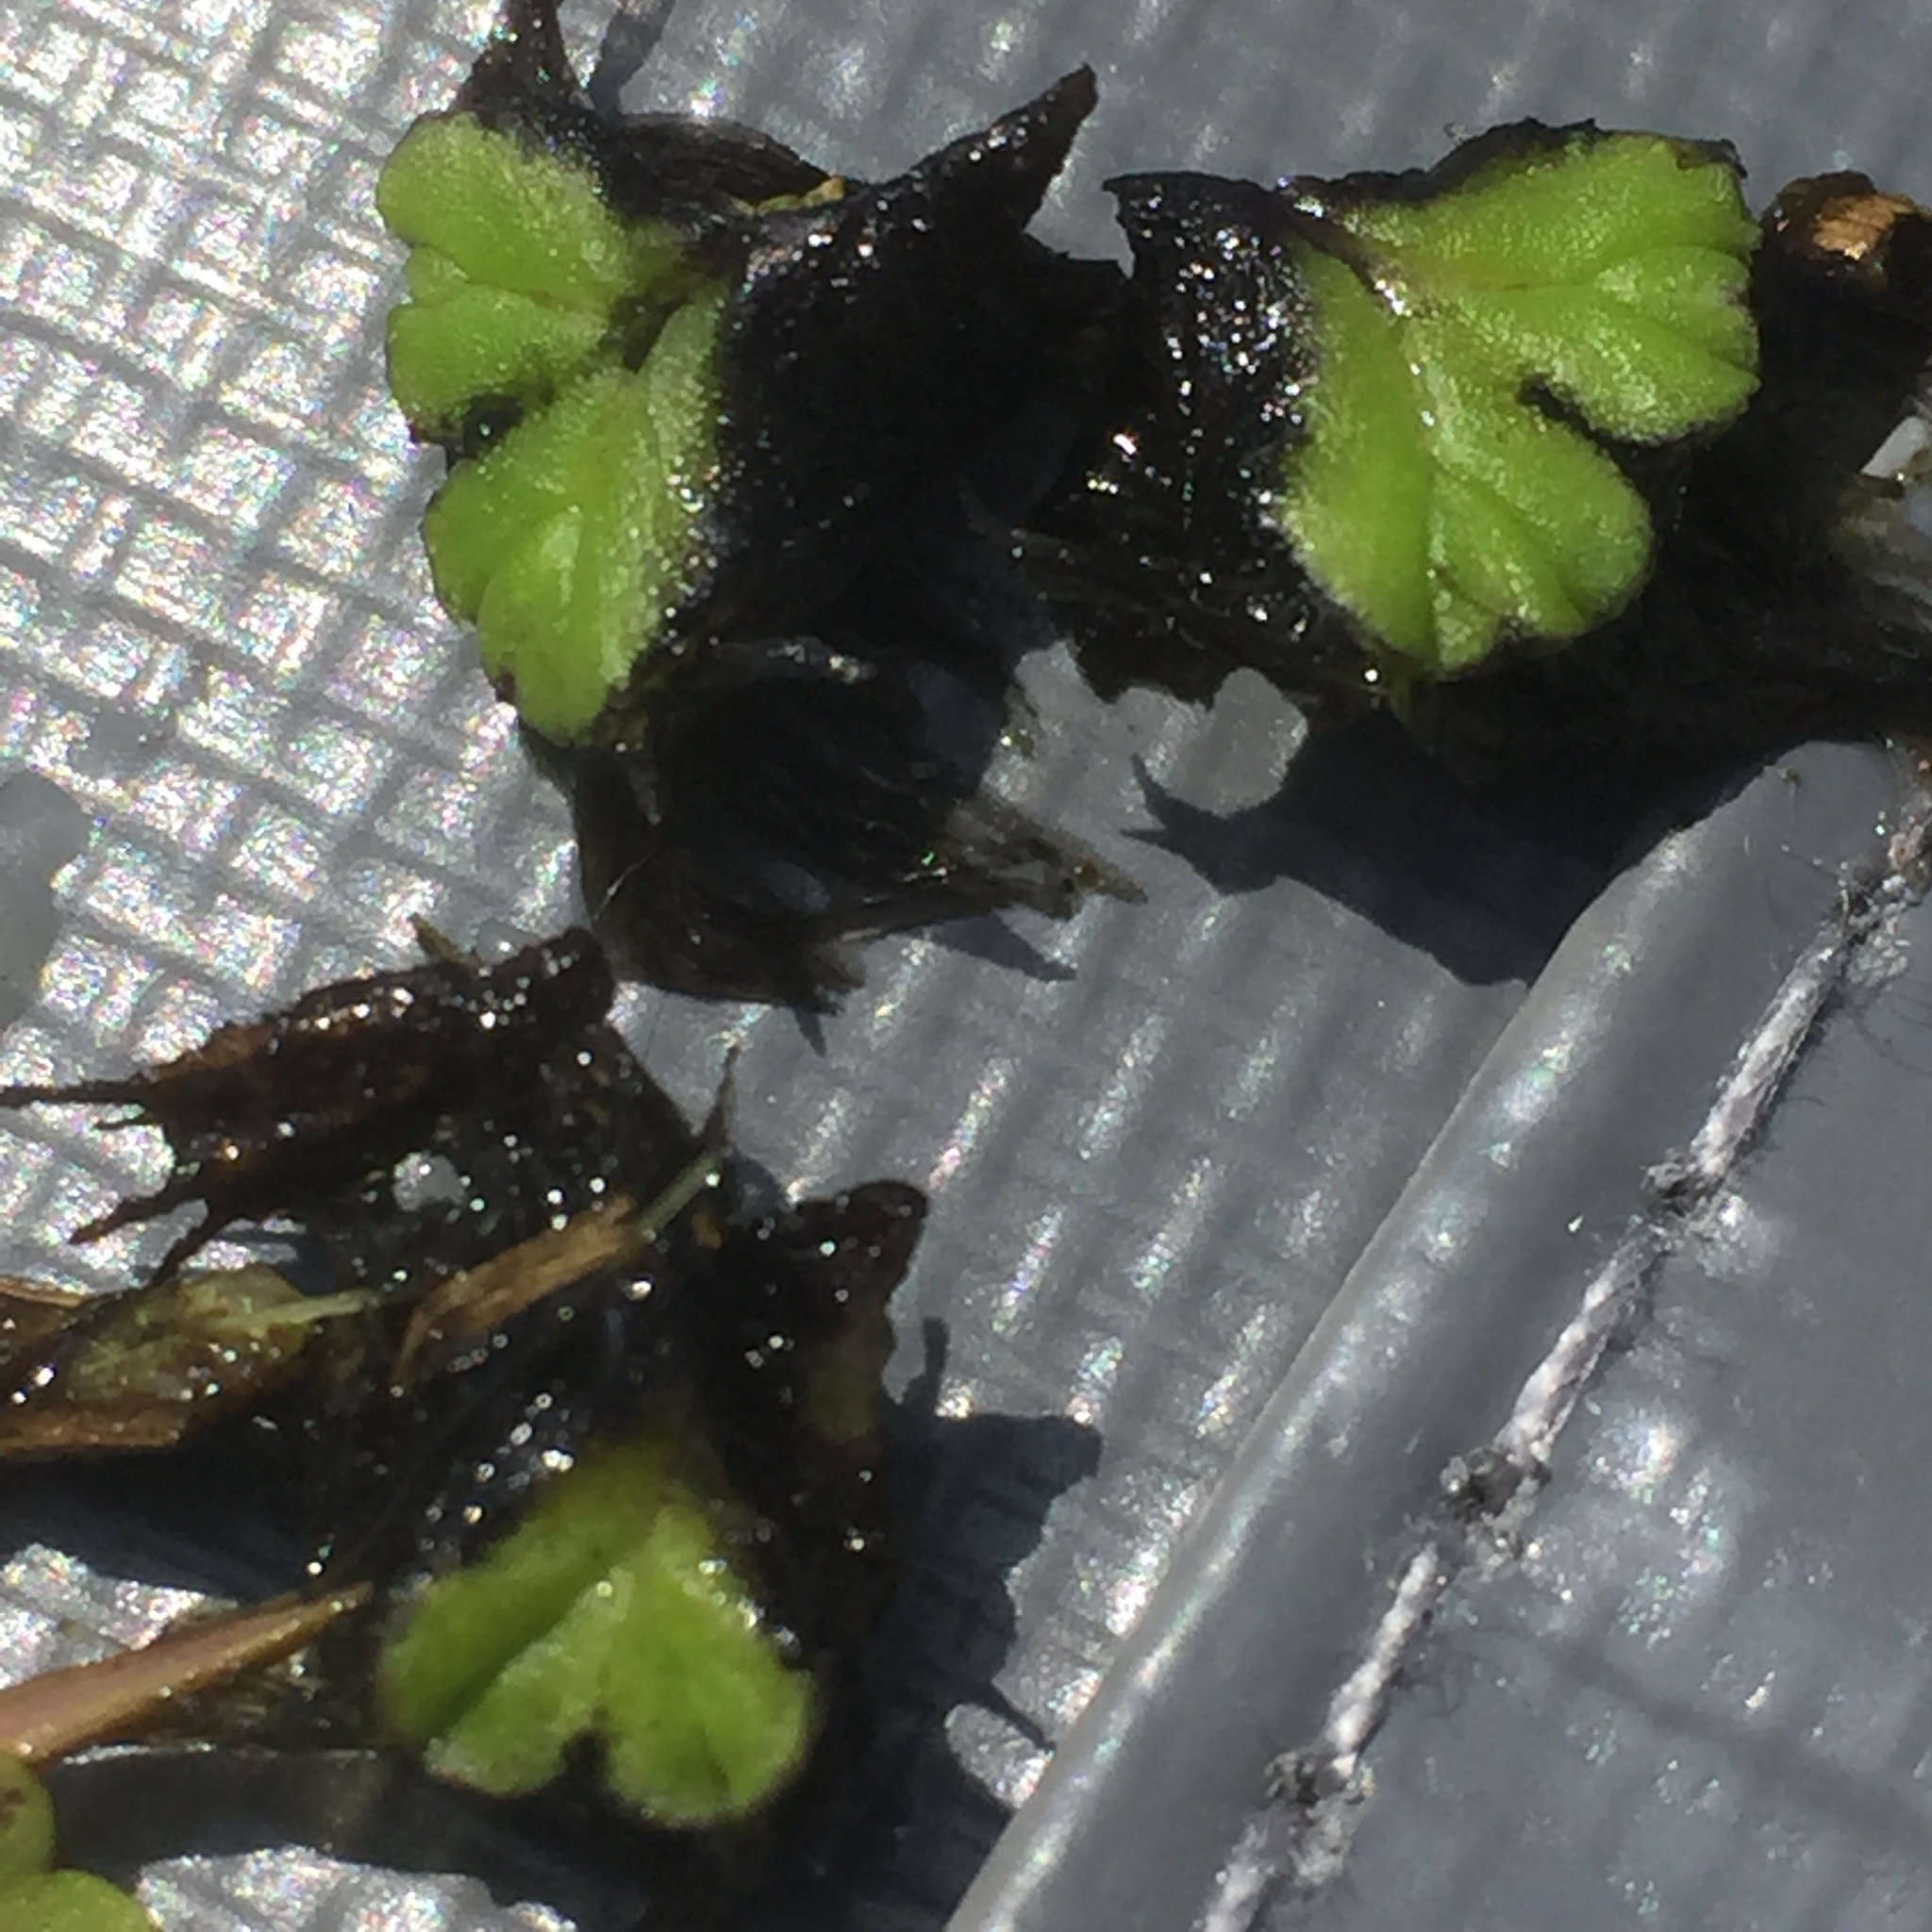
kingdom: Plantae
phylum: Marchantiophyta
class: Marchantiopsida
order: Marchantiales
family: Ricciaceae
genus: Ricciocarpos
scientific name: Ricciocarpos natans
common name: Purple-fringed liverwort
